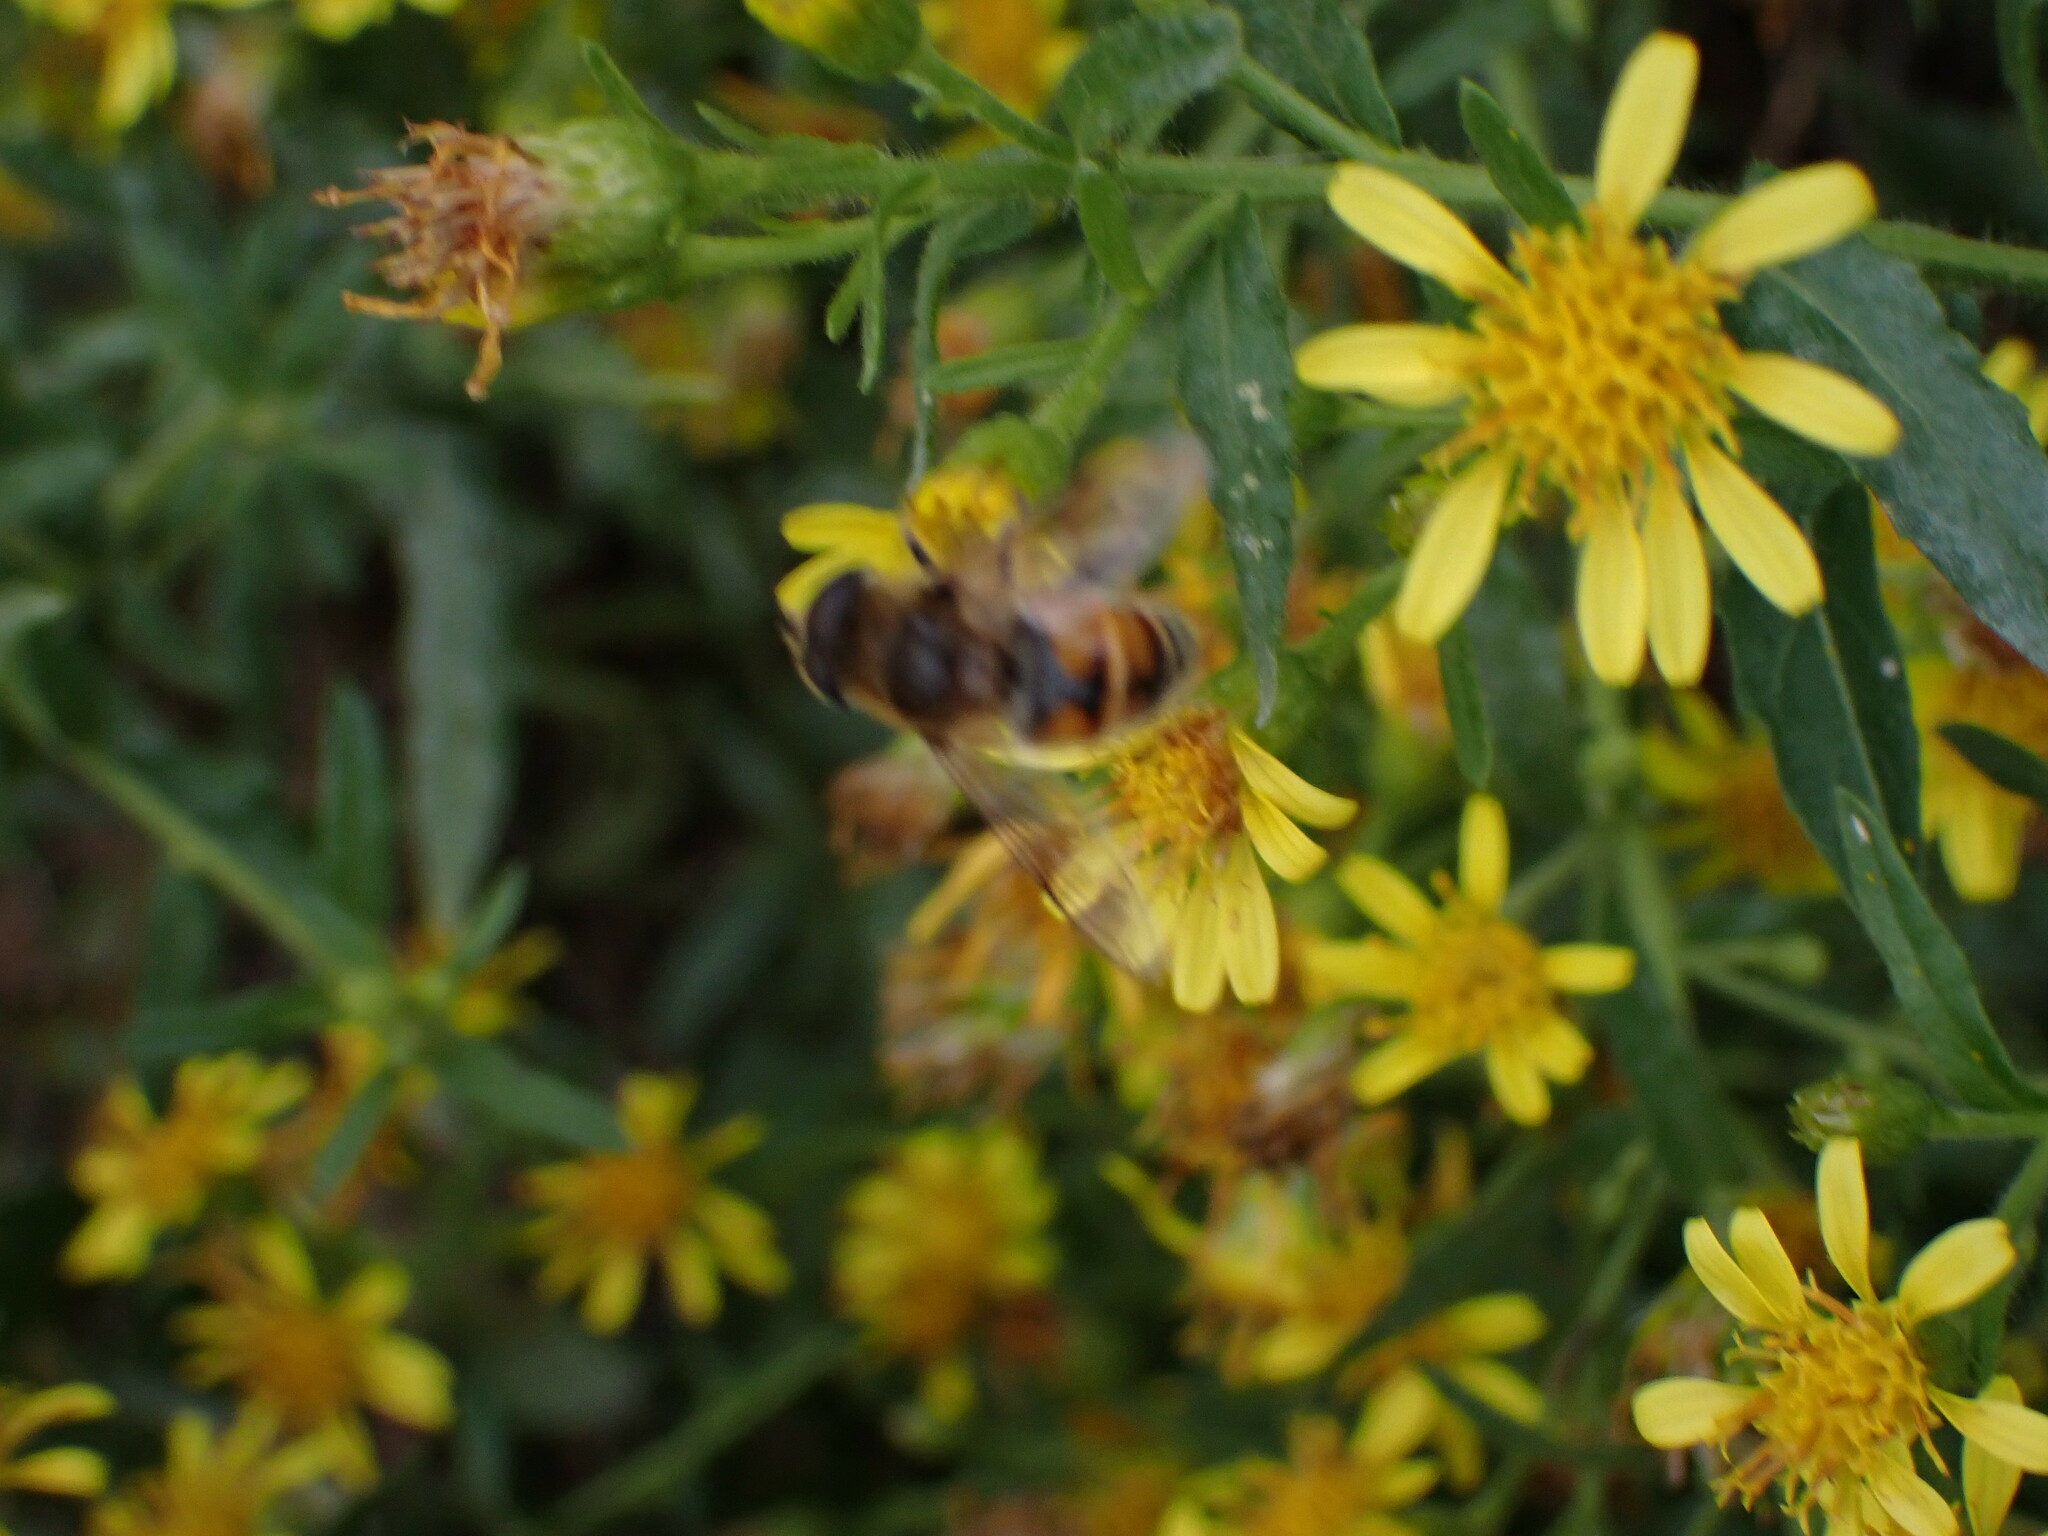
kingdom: Animalia
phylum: Arthropoda
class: Insecta
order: Diptera
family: Syrphidae
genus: Eristalis
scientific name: Eristalis tenax
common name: Drone fly
